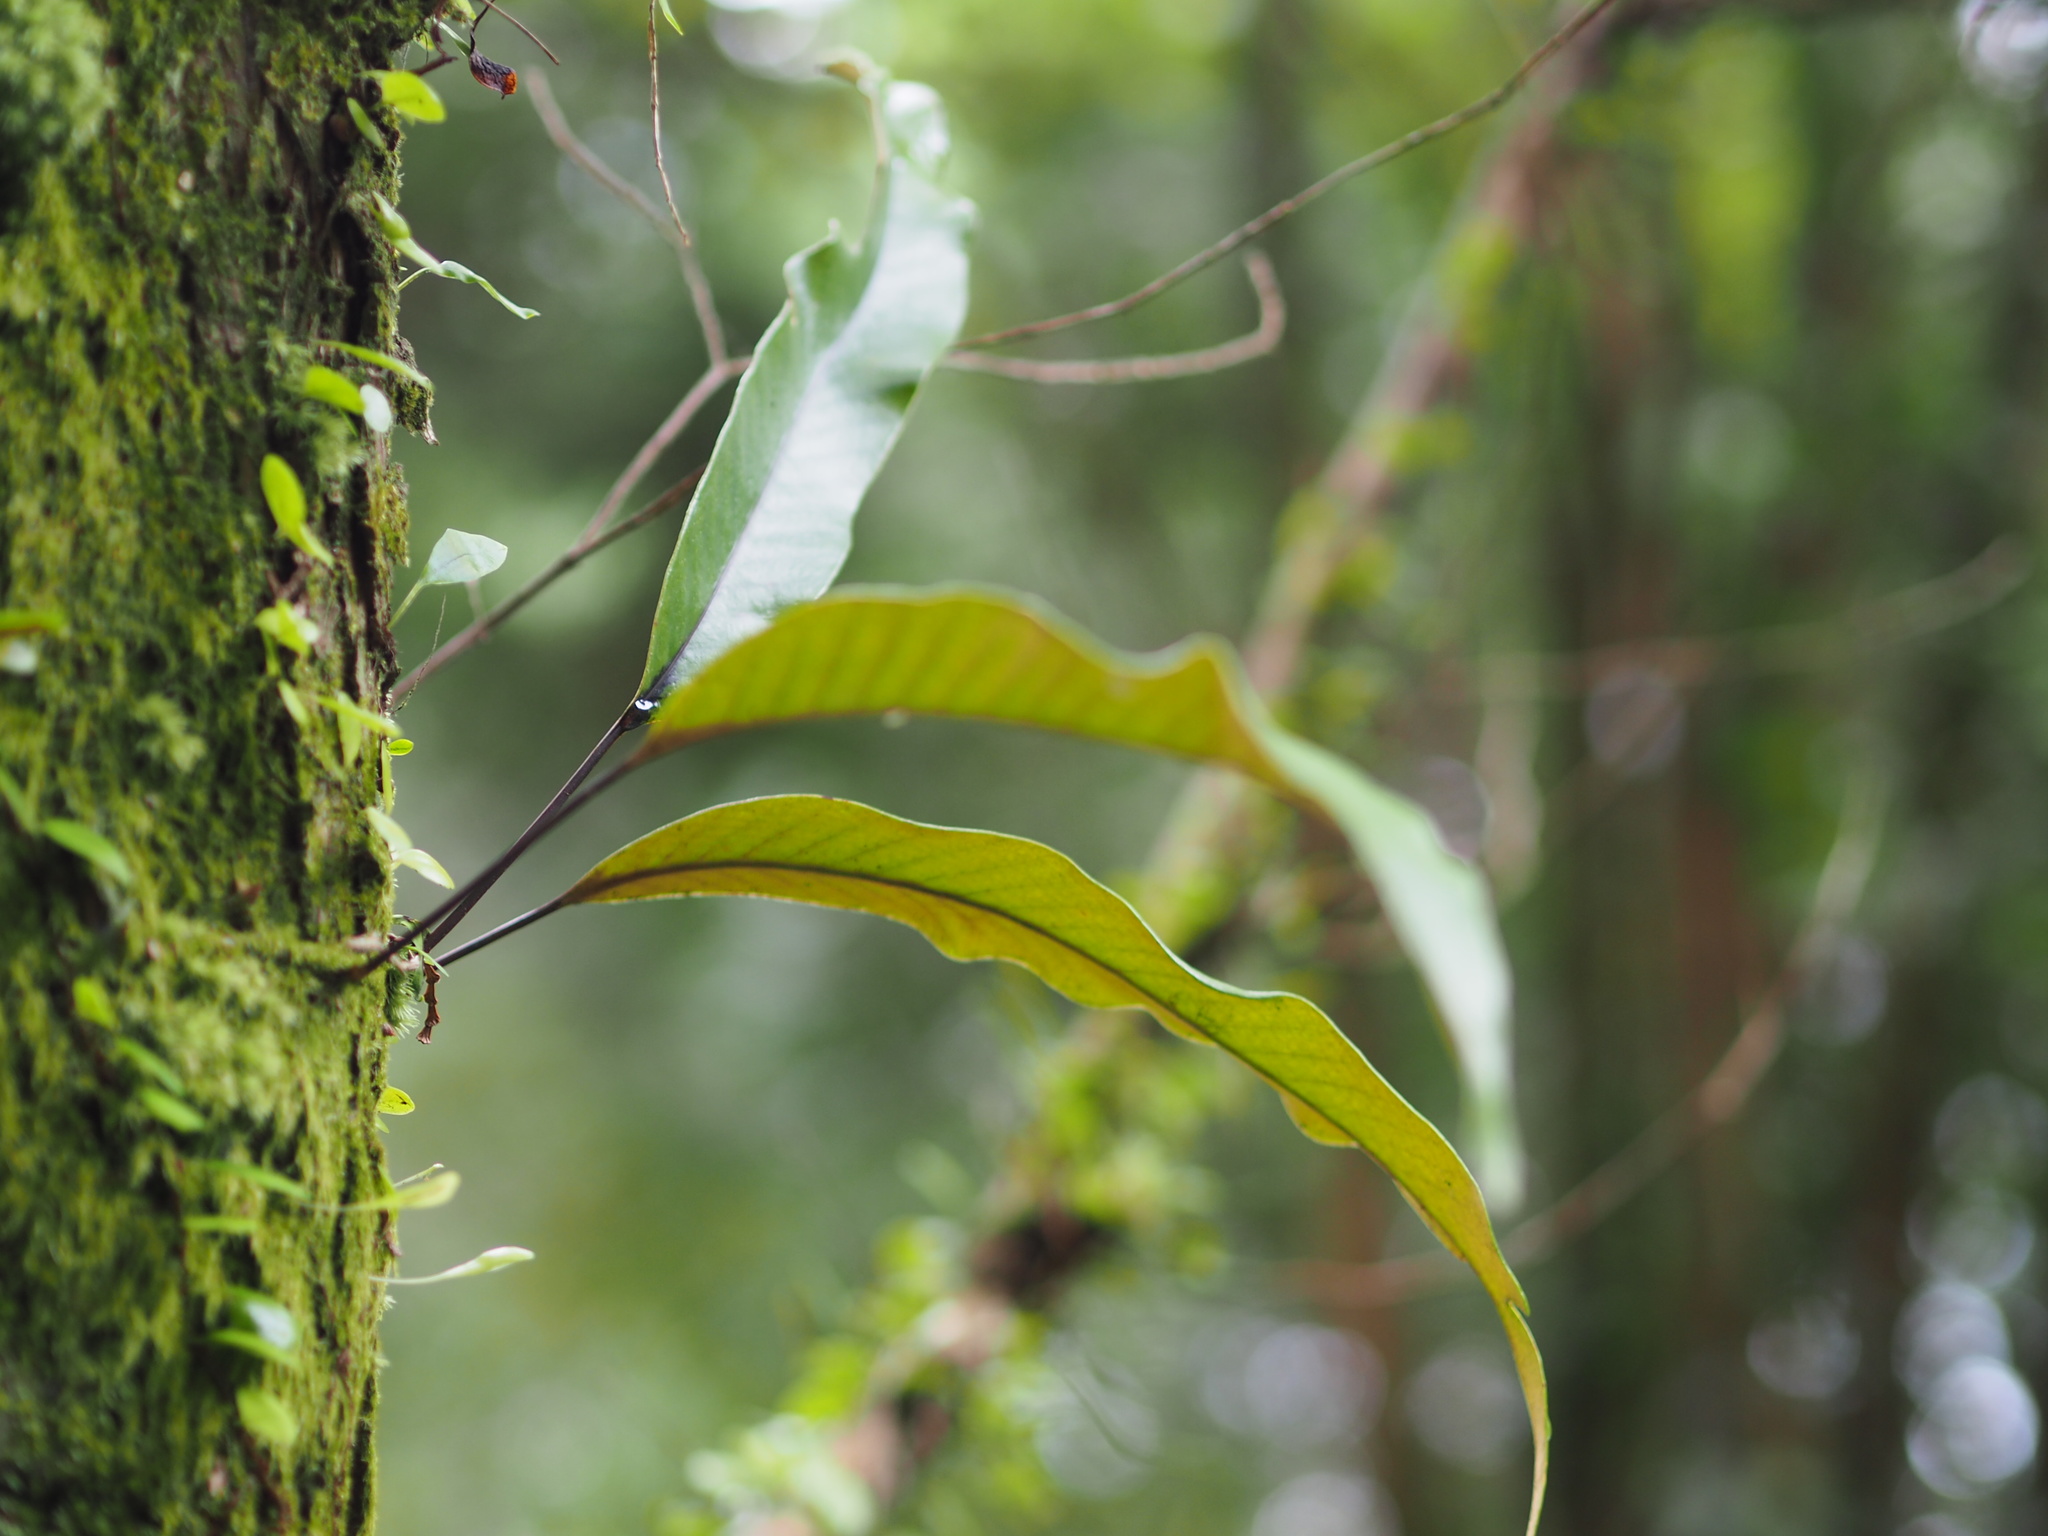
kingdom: Plantae
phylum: Tracheophyta
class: Polypodiopsida
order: Polypodiales
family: Polypodiaceae
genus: Pyrrosia
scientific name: Pyrrosia lingua
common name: Felt fern
